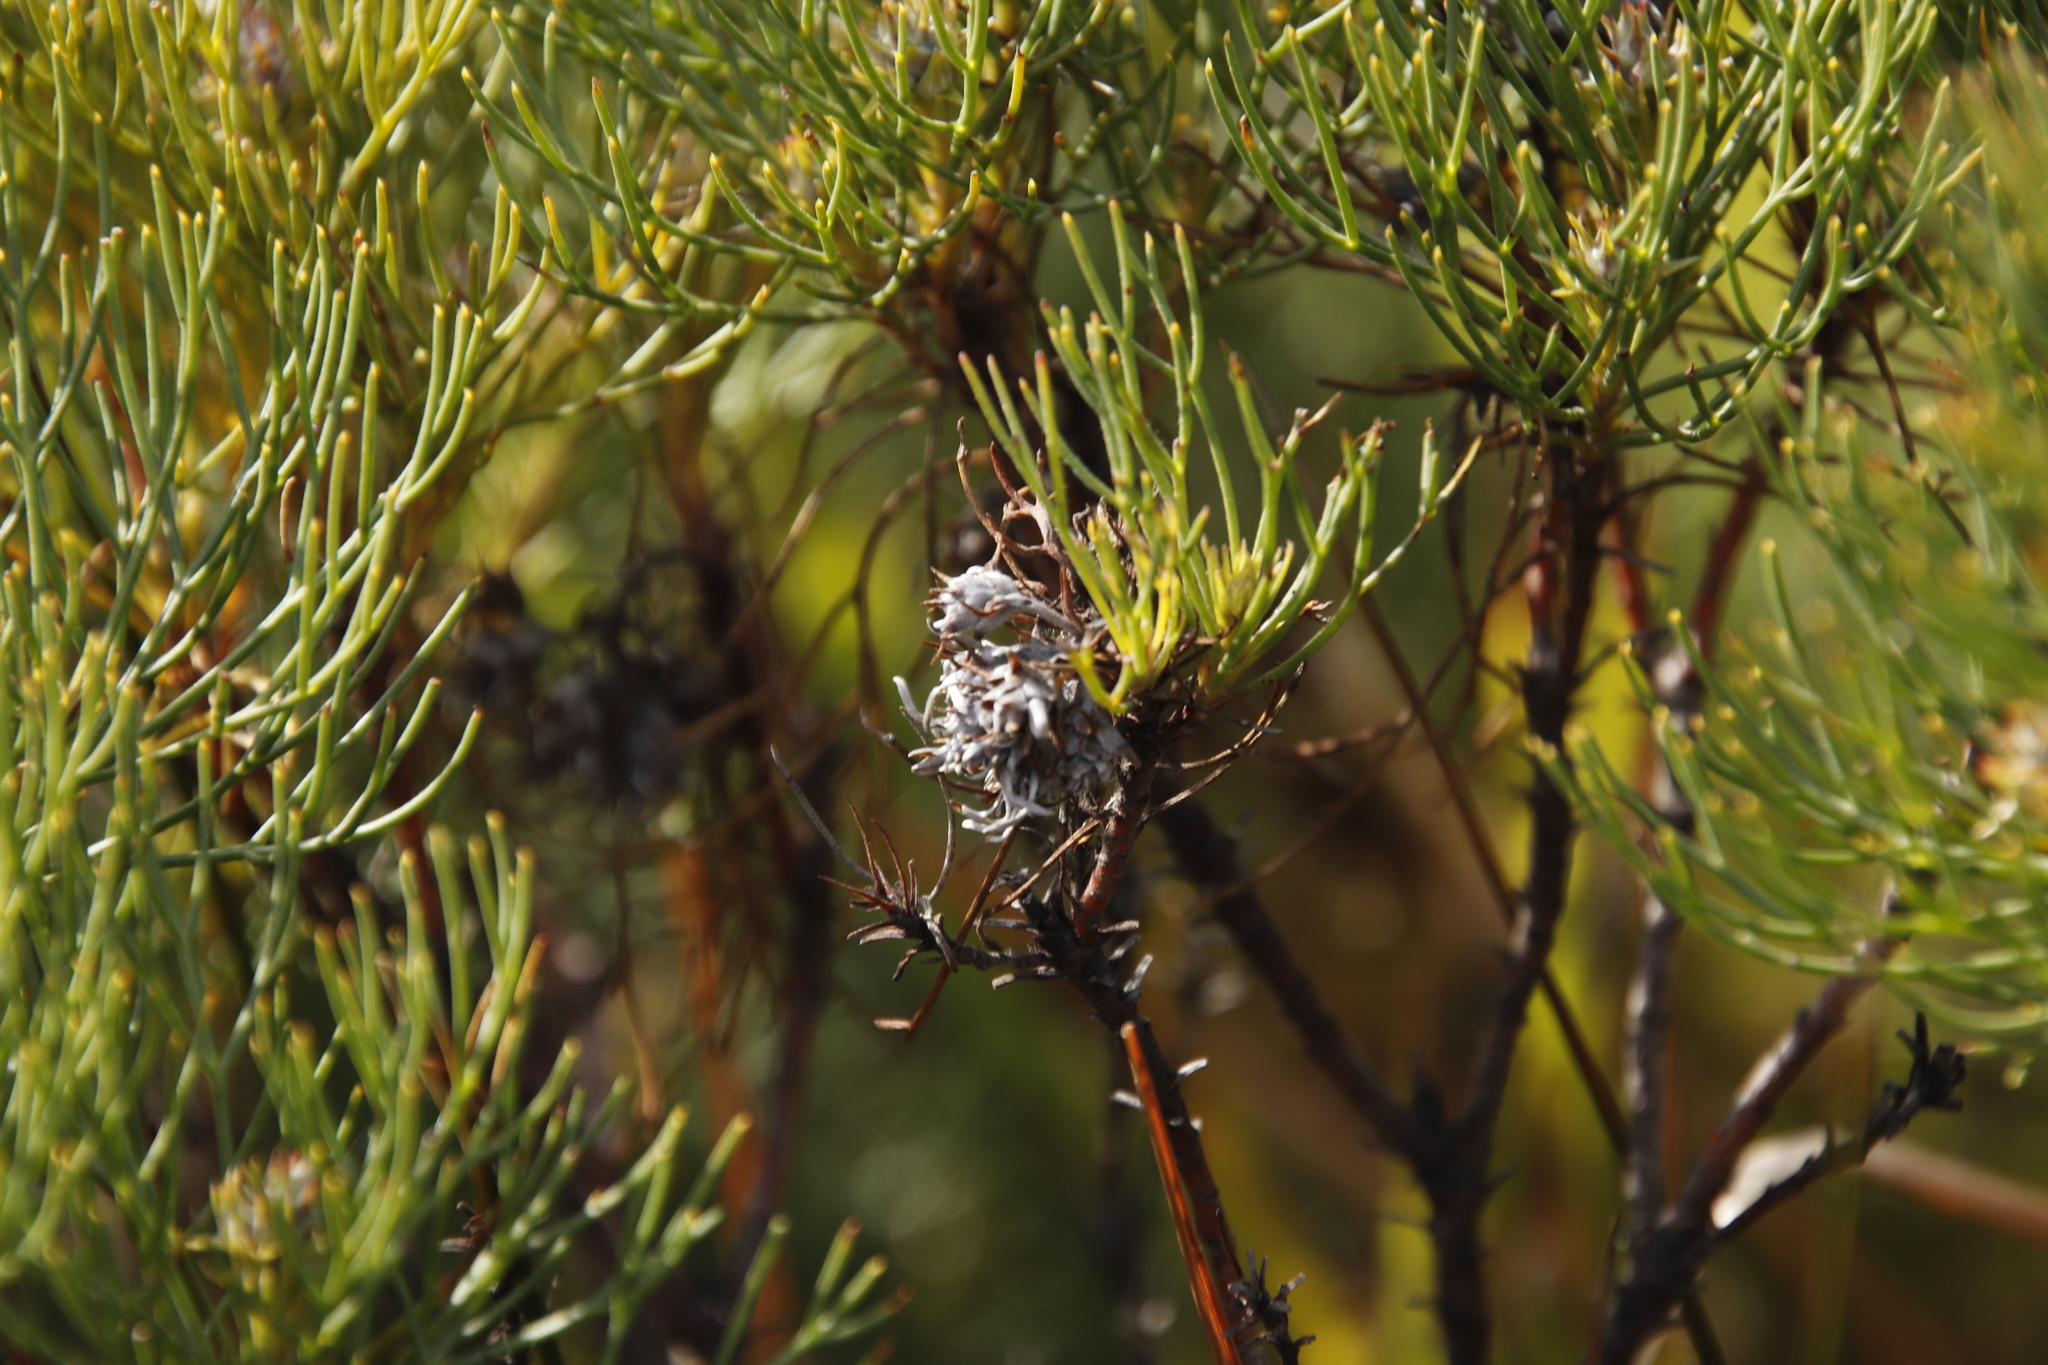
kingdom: Plantae
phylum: Tracheophyta
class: Magnoliopsida
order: Proteales
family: Proteaceae
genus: Serruria
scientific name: Serruria ascendens
